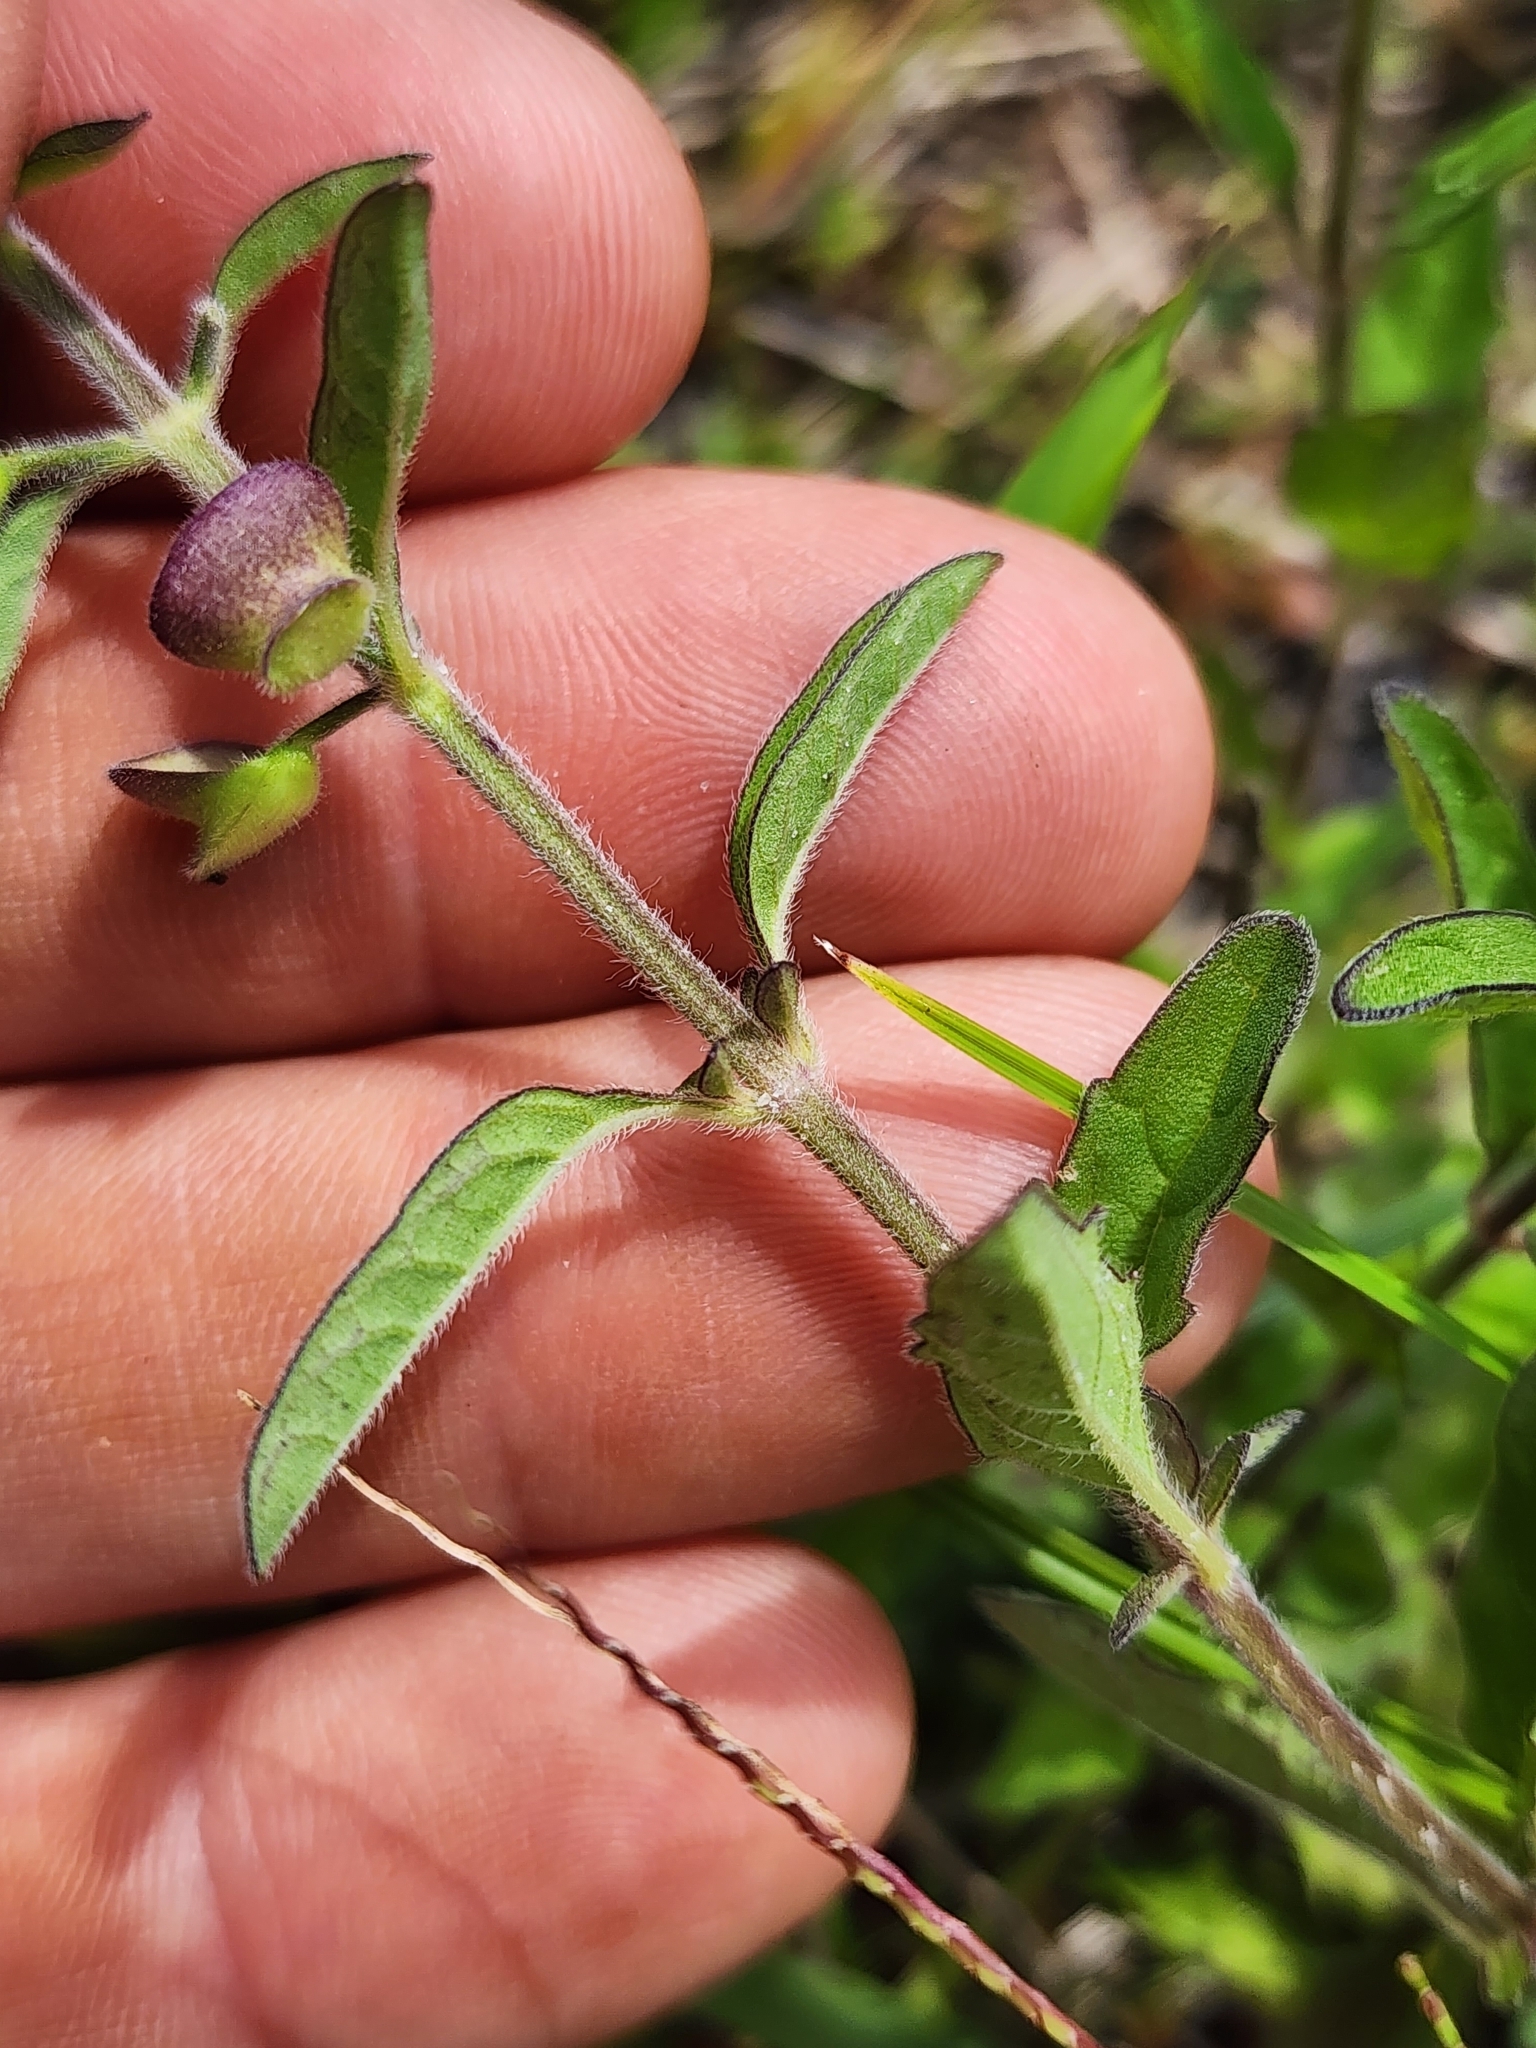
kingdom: Plantae
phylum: Tracheophyta
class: Magnoliopsida
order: Lamiales
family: Lamiaceae
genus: Scutellaria
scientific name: Scutellaria integrifolia
